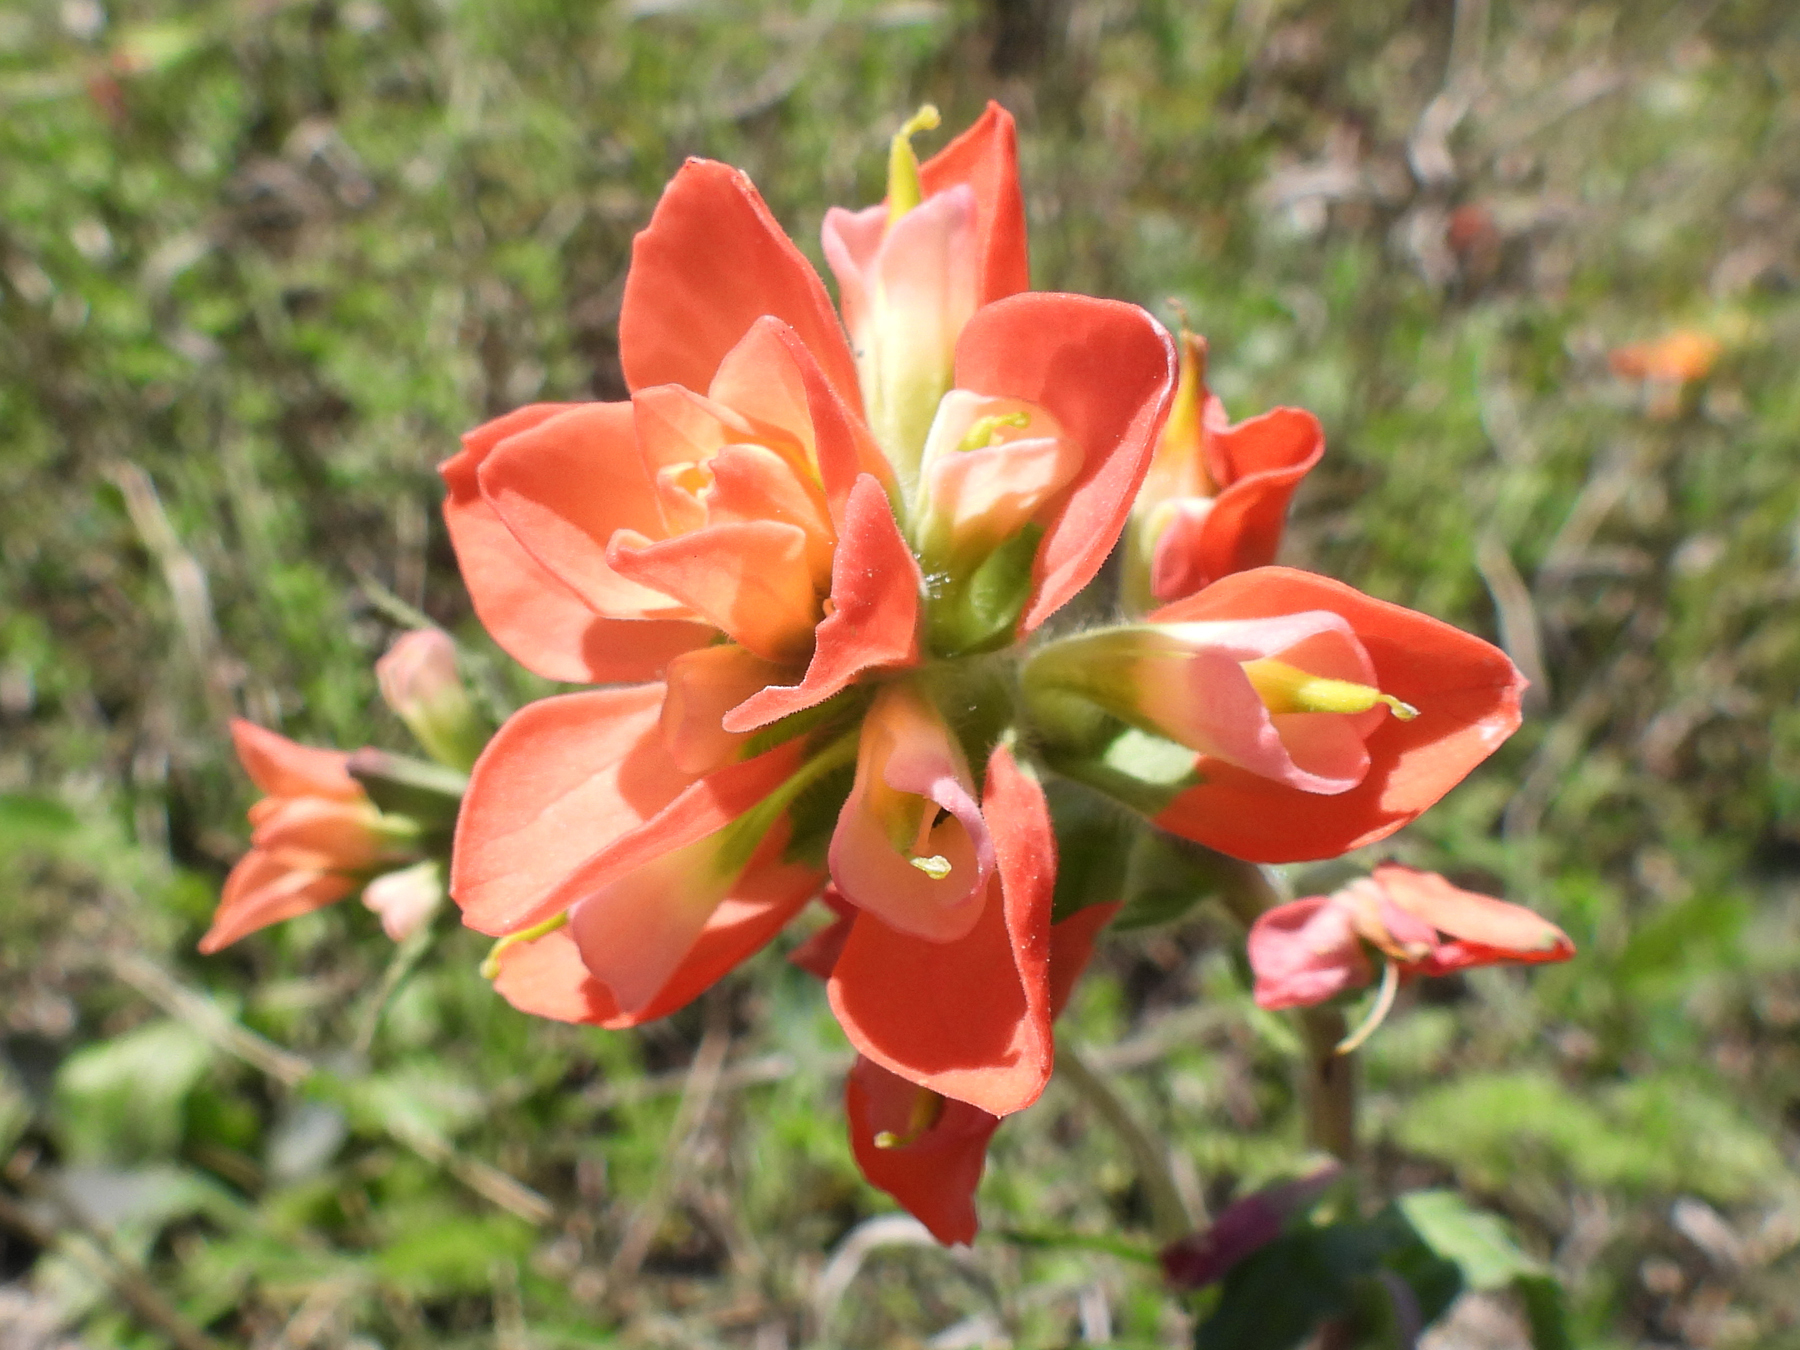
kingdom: Plantae
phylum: Tracheophyta
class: Magnoliopsida
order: Lamiales
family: Orobanchaceae
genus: Castilleja
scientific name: Castilleja indivisa
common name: Texas paintbrush
